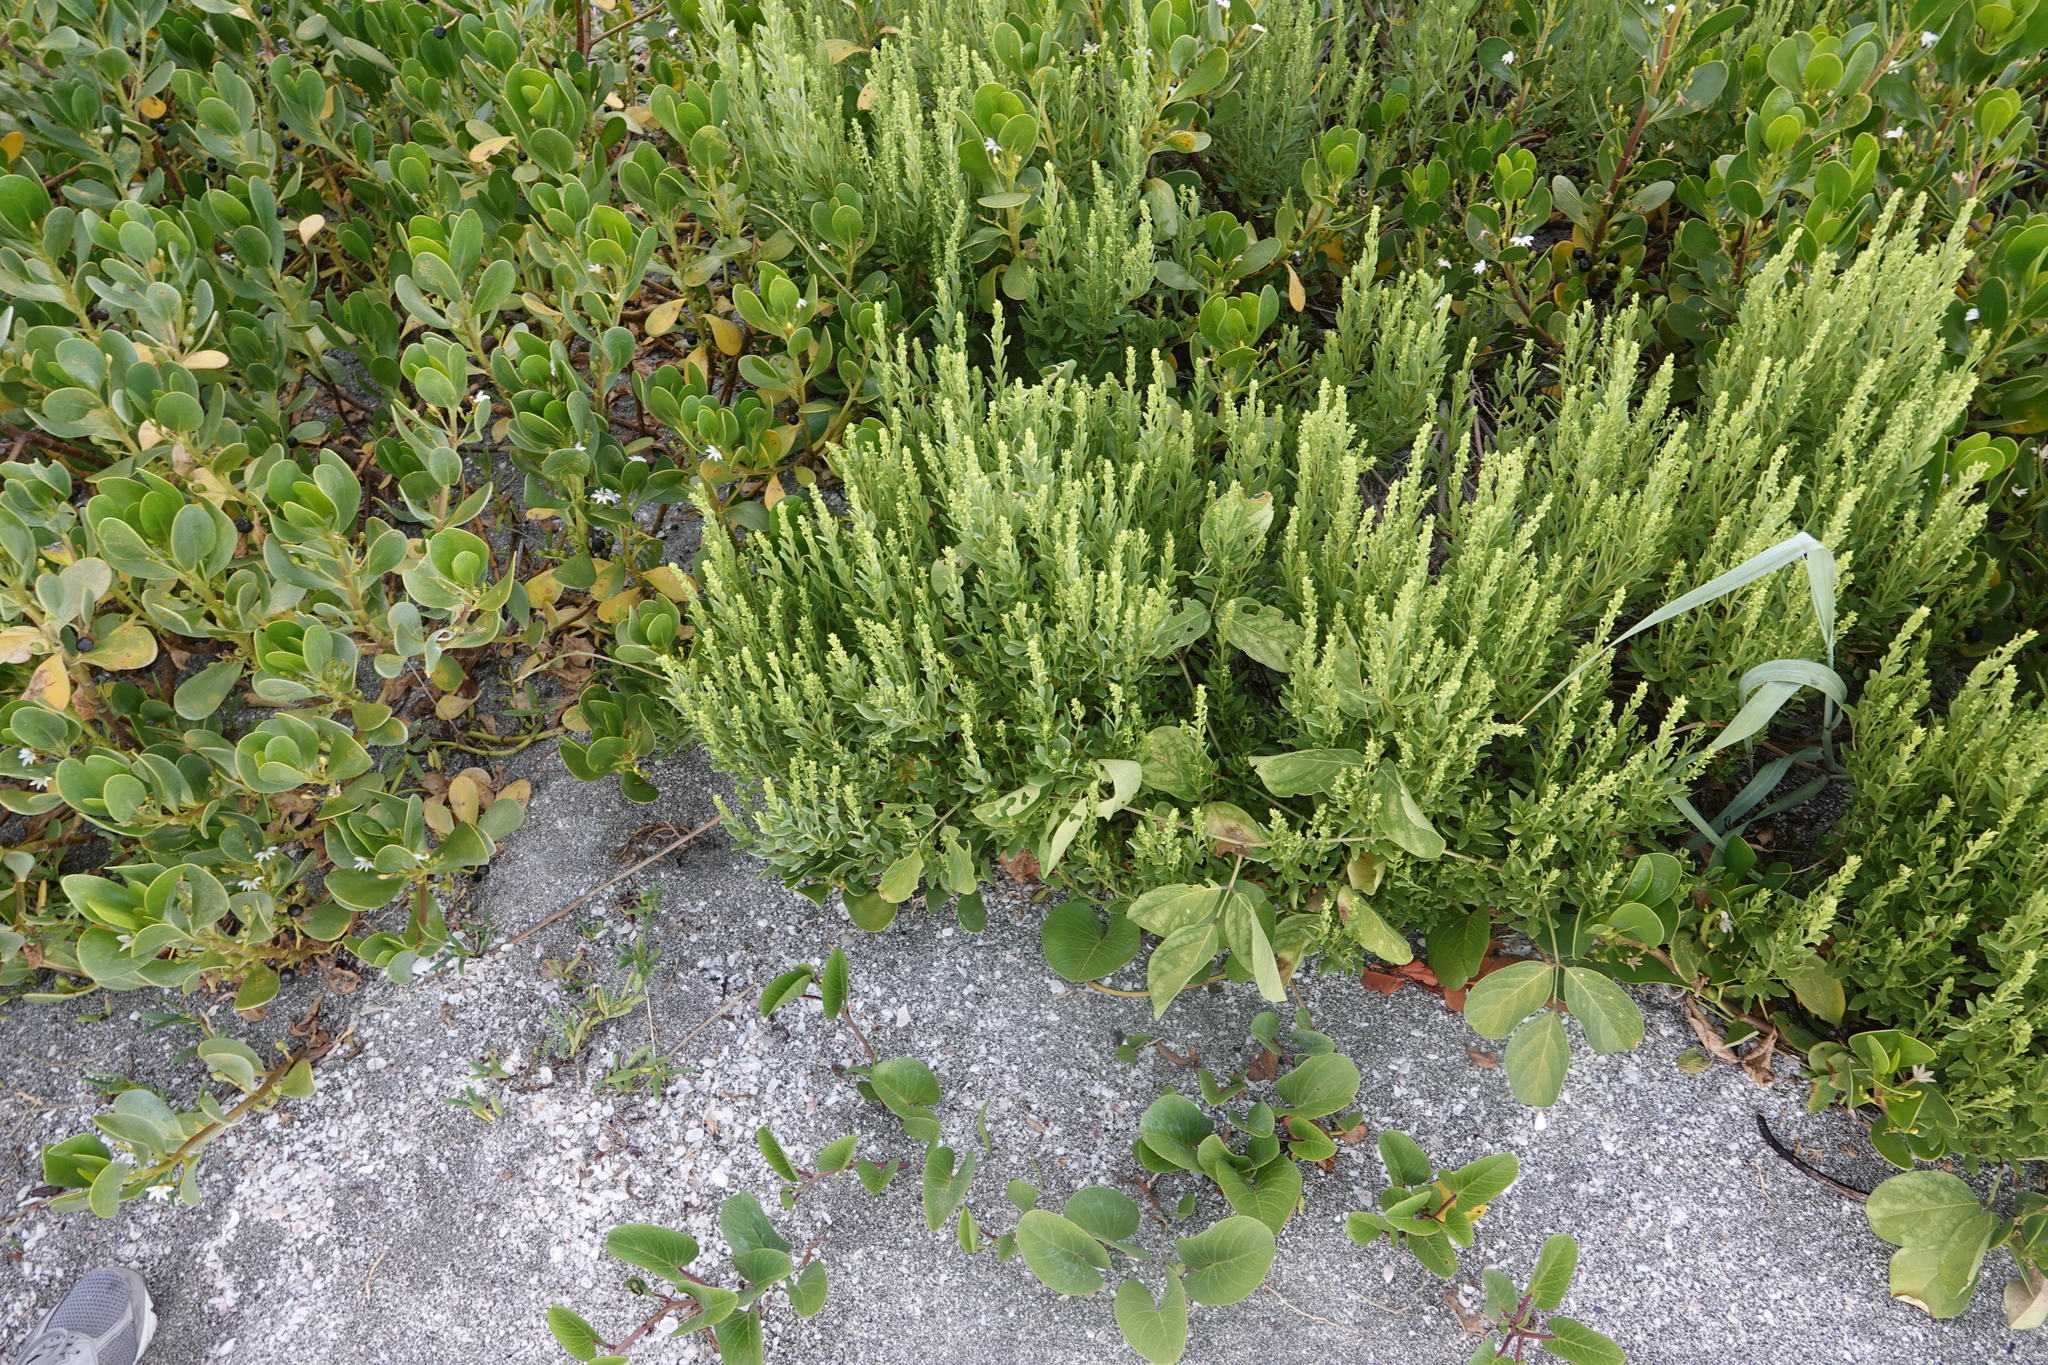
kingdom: Plantae
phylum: Tracheophyta
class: Magnoliopsida
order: Asterales
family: Asteraceae
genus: Iva
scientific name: Iva imbricata
